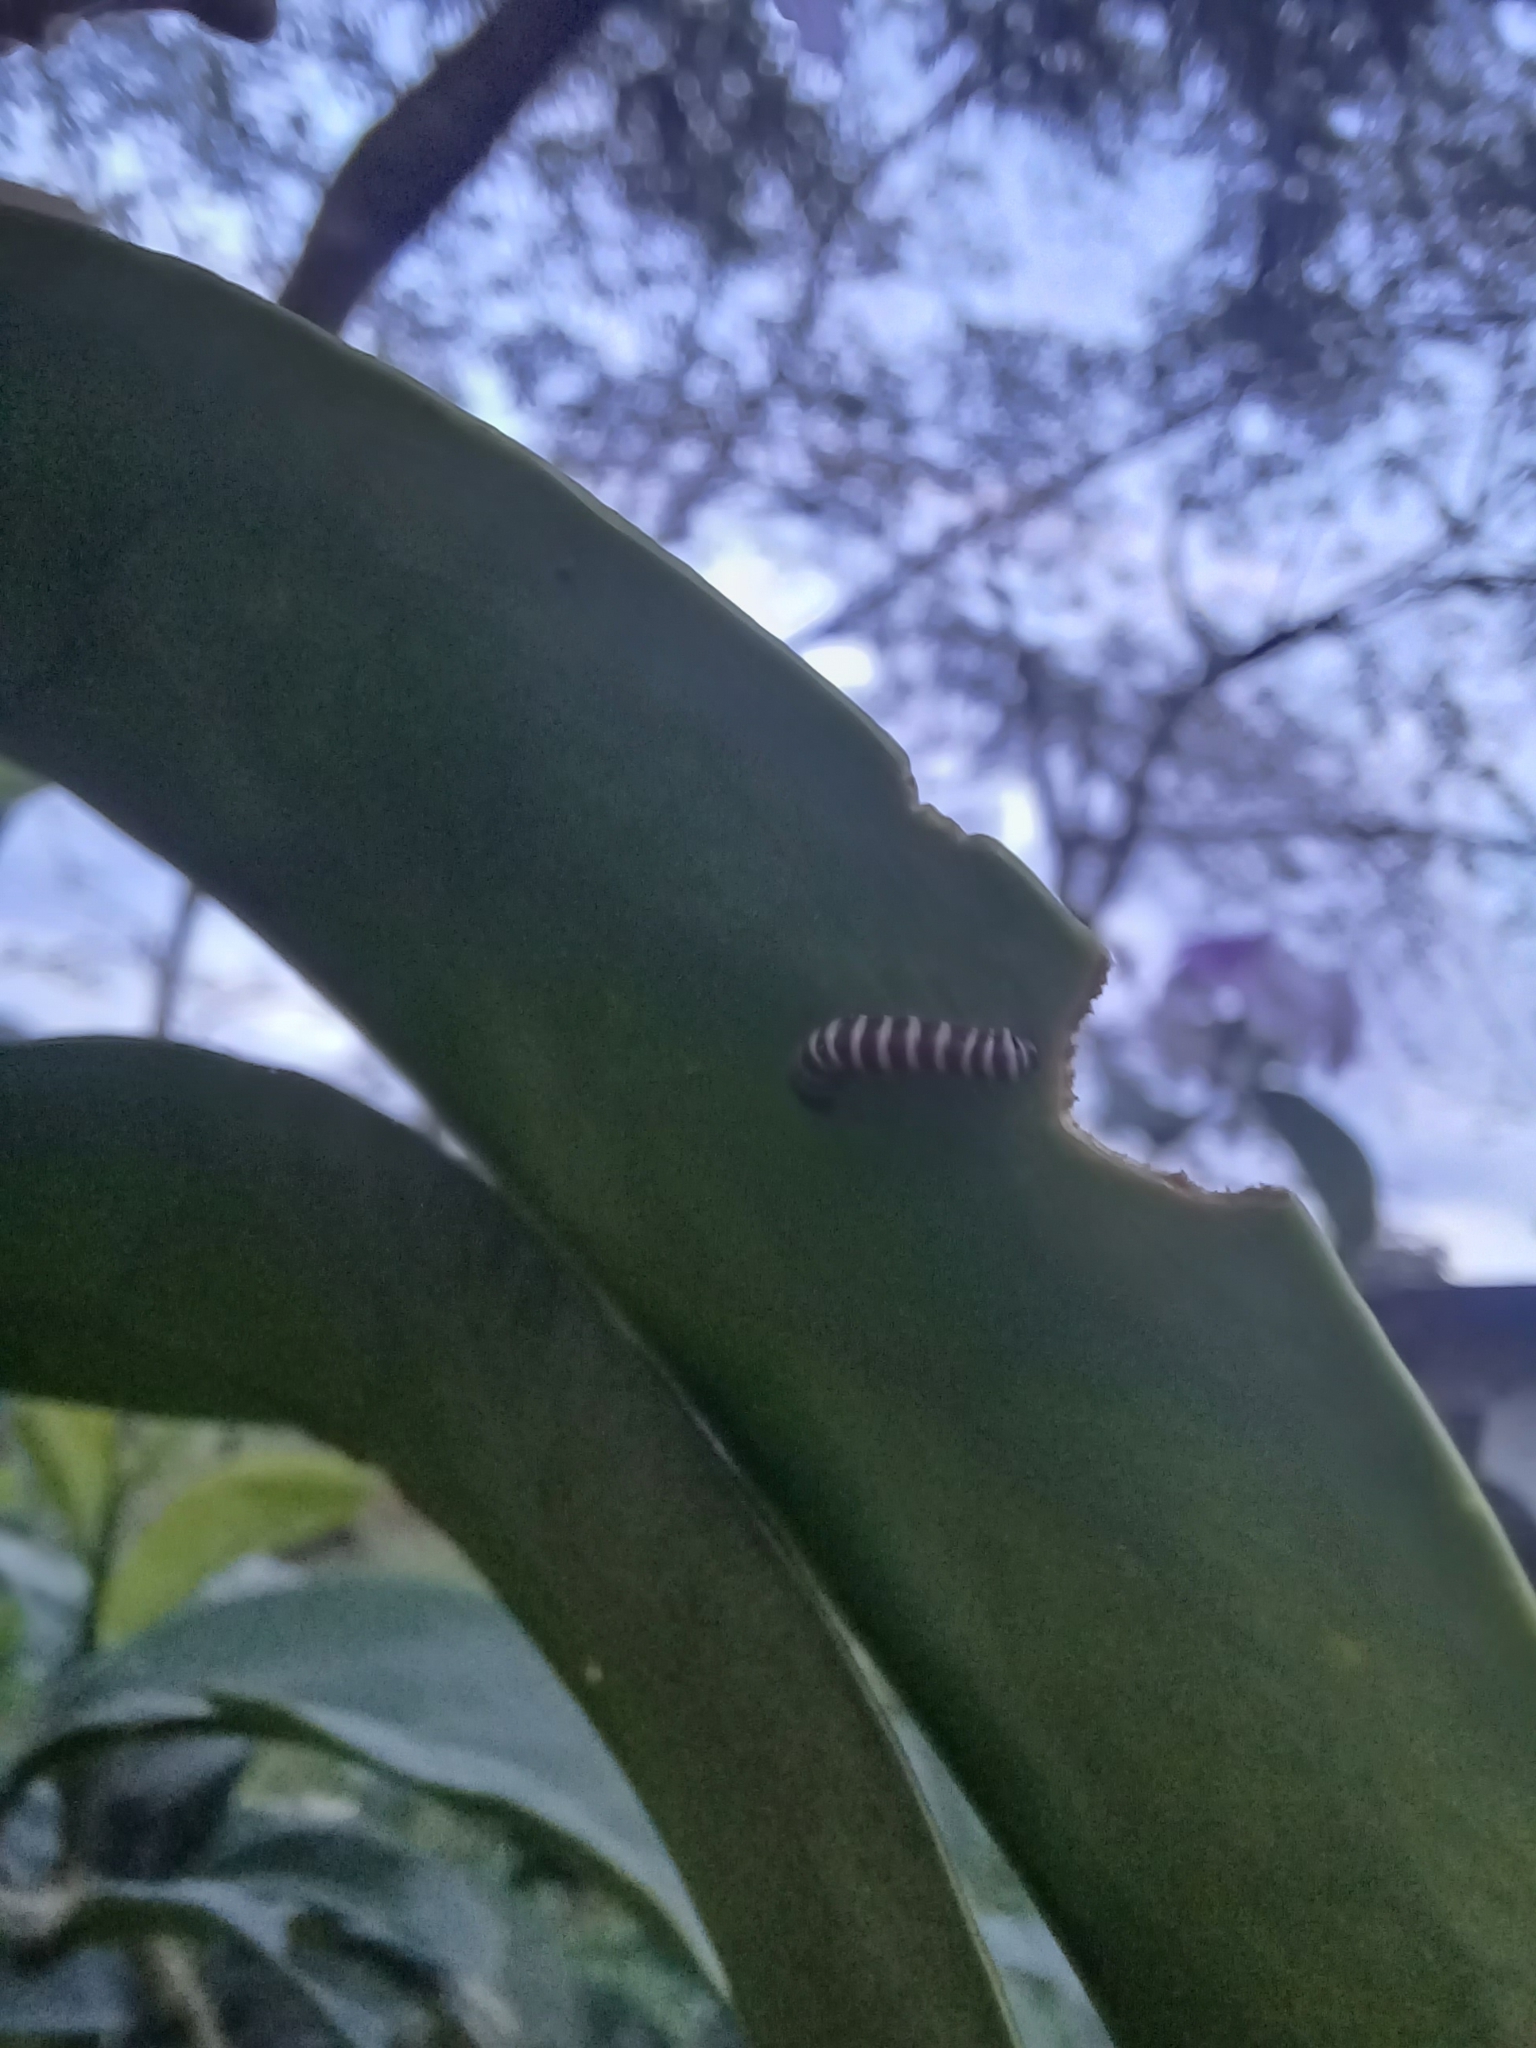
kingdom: Animalia
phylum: Arthropoda
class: Insecta
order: Lepidoptera
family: Nymphalidae
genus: Methona
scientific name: Methona confusa
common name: Confusa tigerwing
